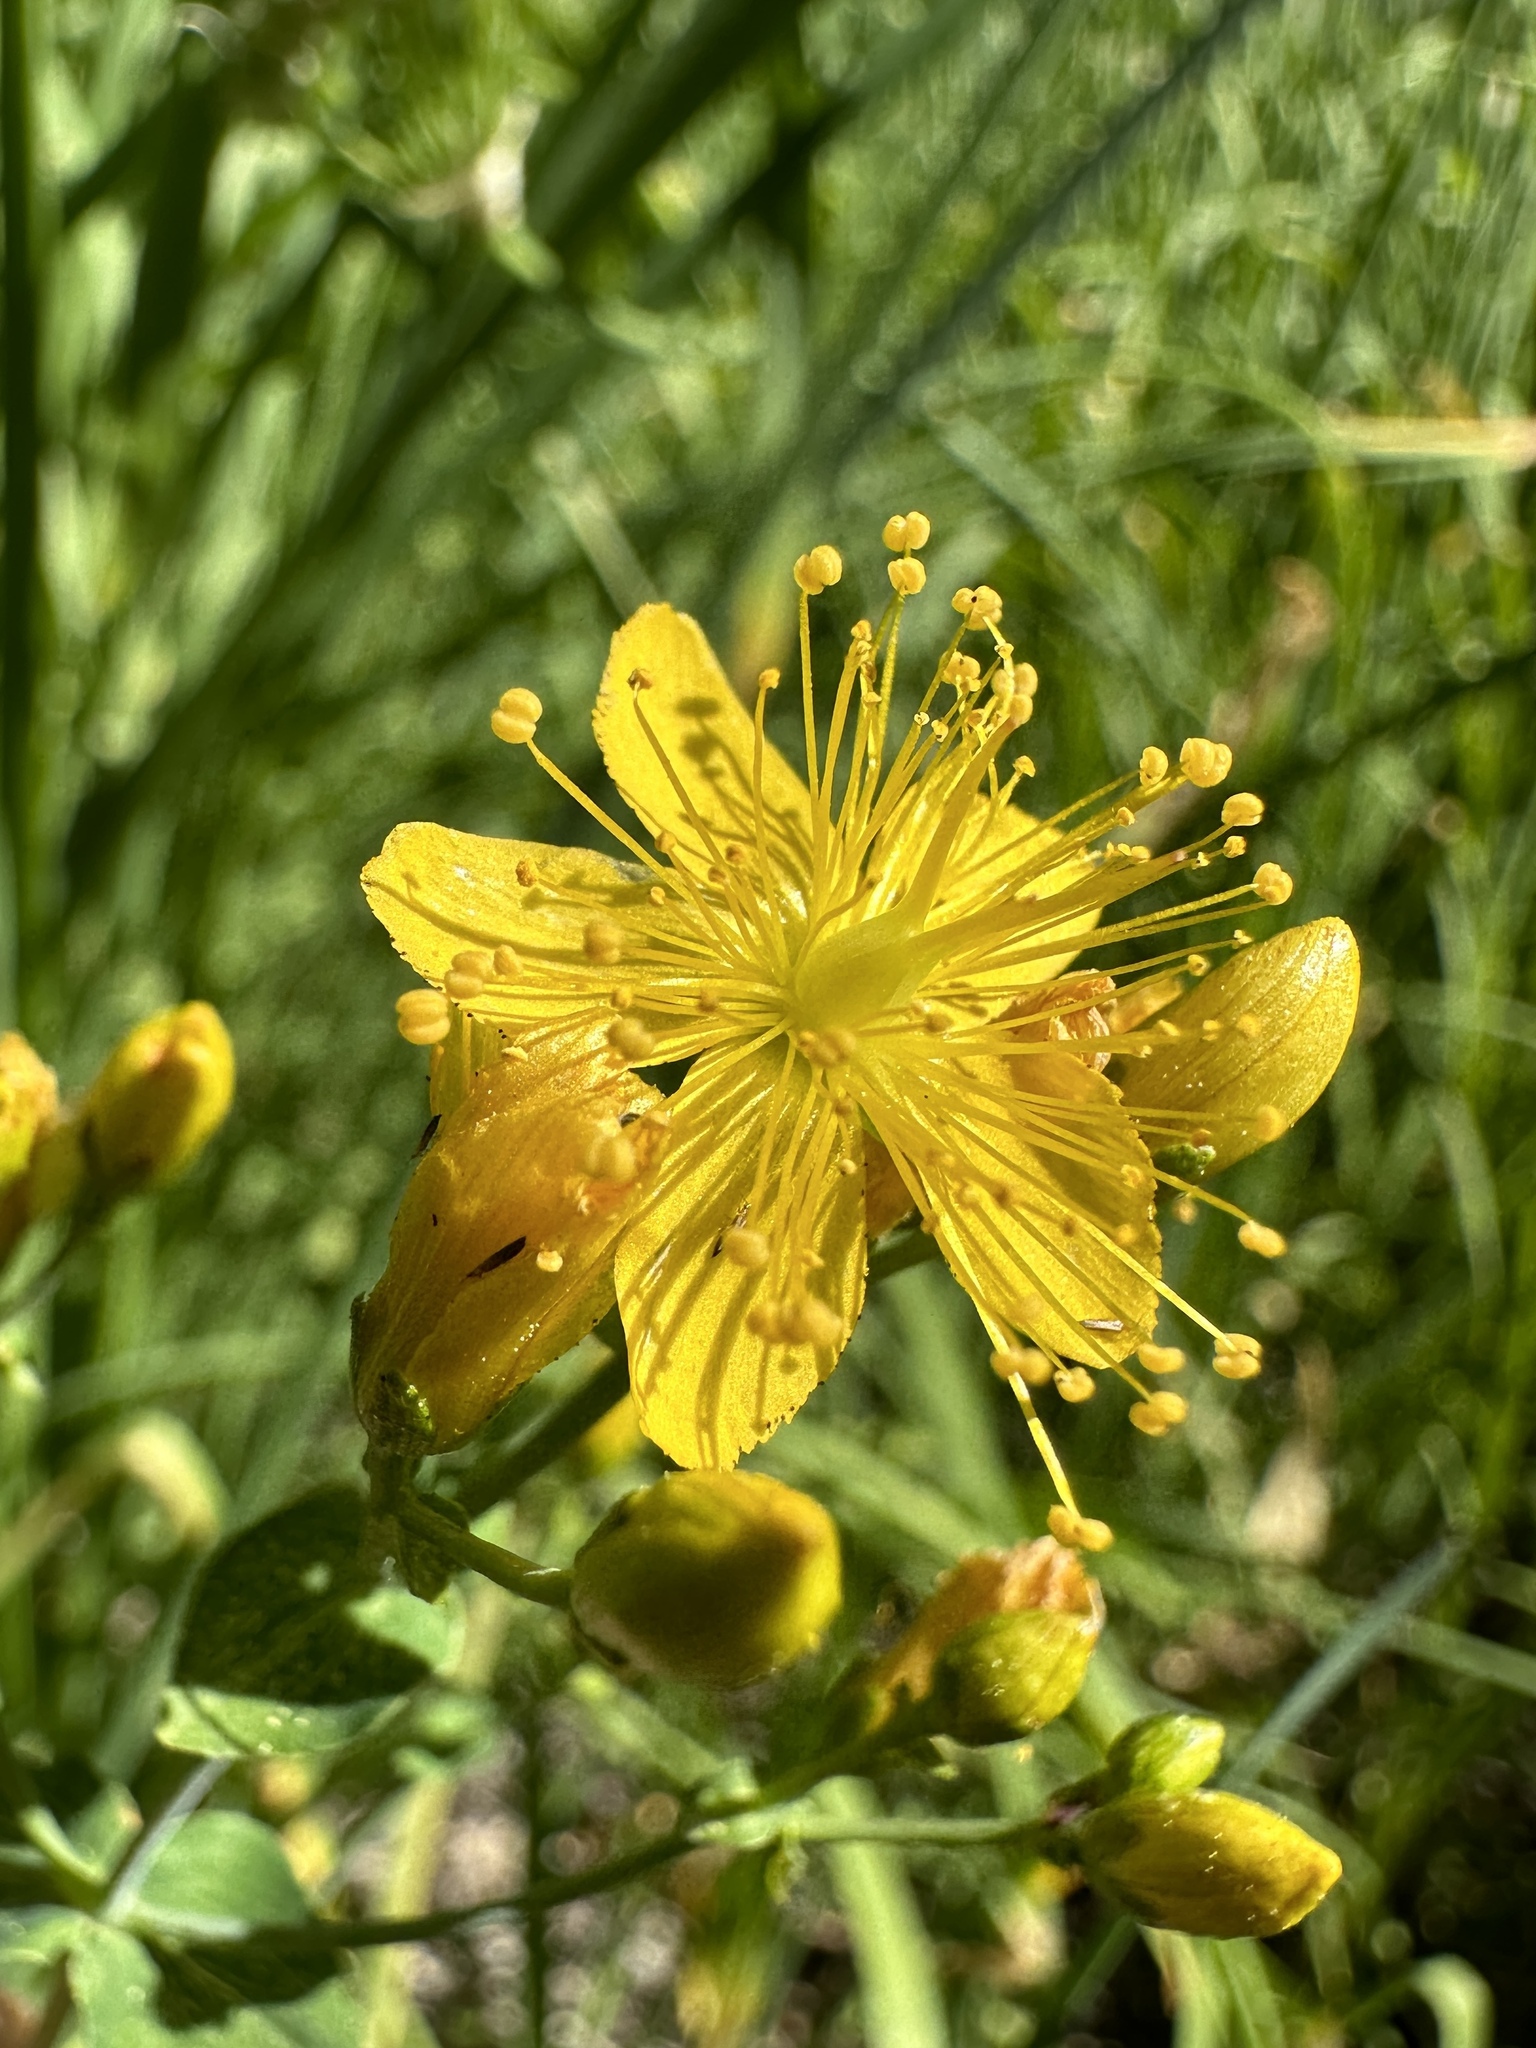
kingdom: Plantae
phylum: Tracheophyta
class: Magnoliopsida
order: Malpighiales
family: Hypericaceae
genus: Hypericum
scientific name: Hypericum scouleri
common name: Scouler's st. john's-wort
